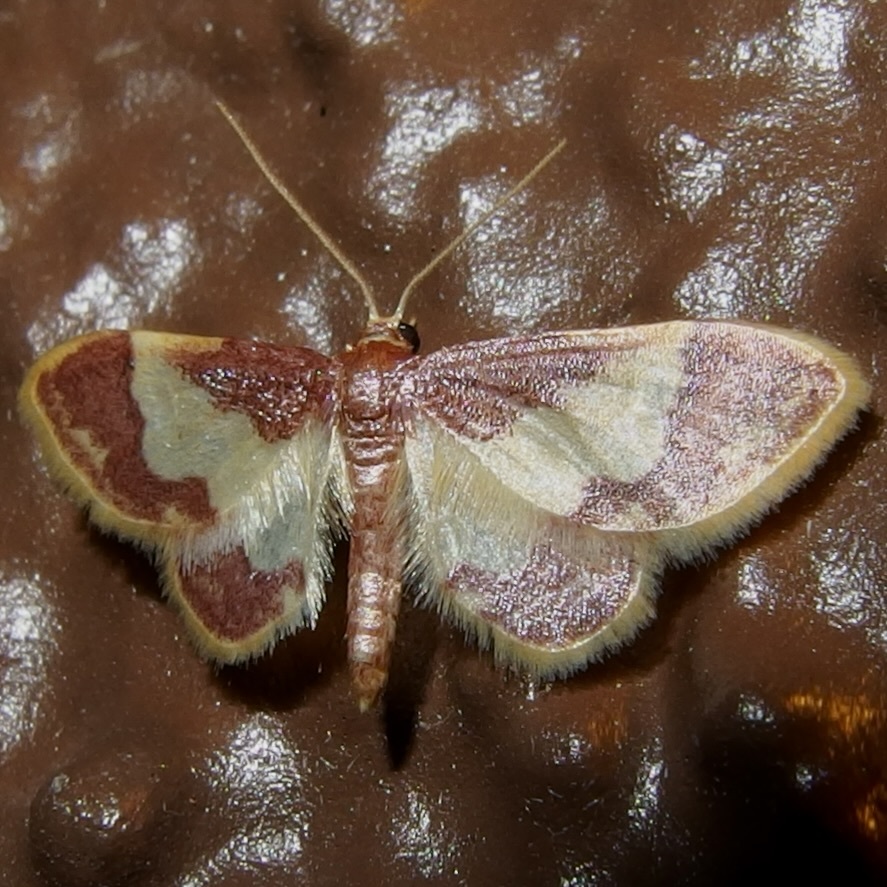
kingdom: Animalia
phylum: Arthropoda
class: Insecta
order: Lepidoptera
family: Geometridae
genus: Idaea
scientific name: Idaea basinta
